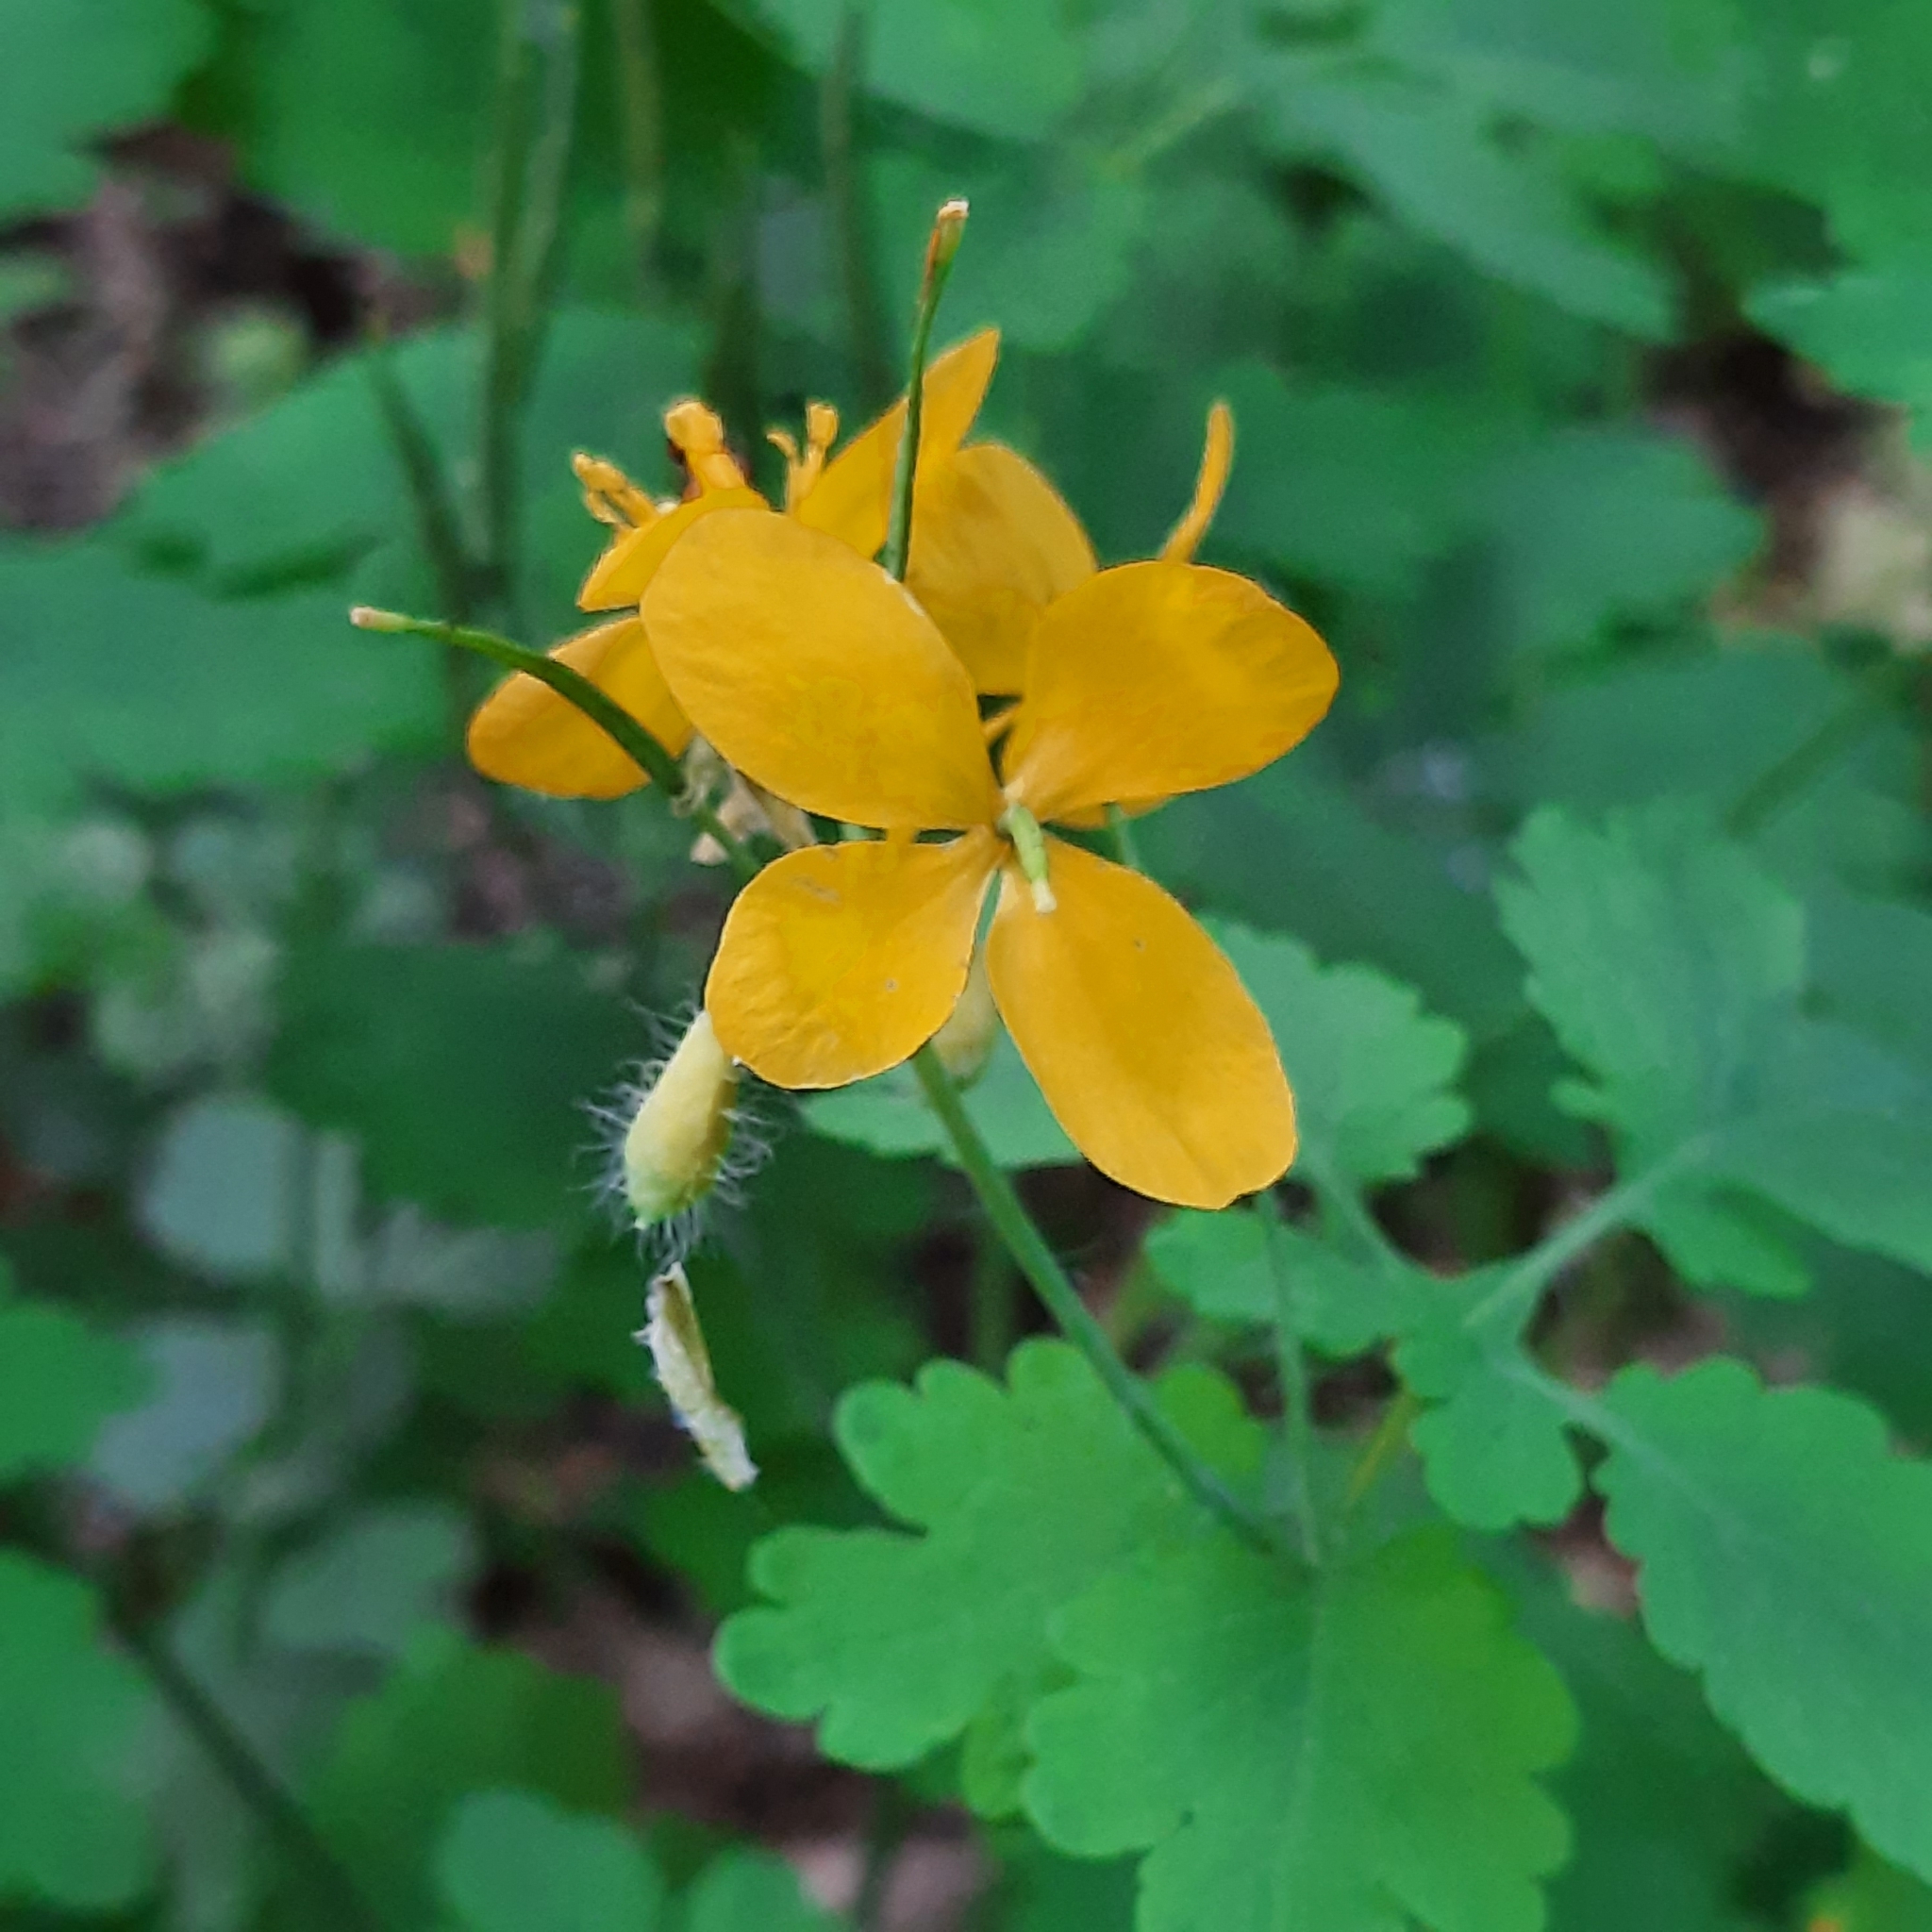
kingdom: Plantae
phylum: Tracheophyta
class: Magnoliopsida
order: Ranunculales
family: Papaveraceae
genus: Chelidonium
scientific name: Chelidonium majus
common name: Greater celandine
